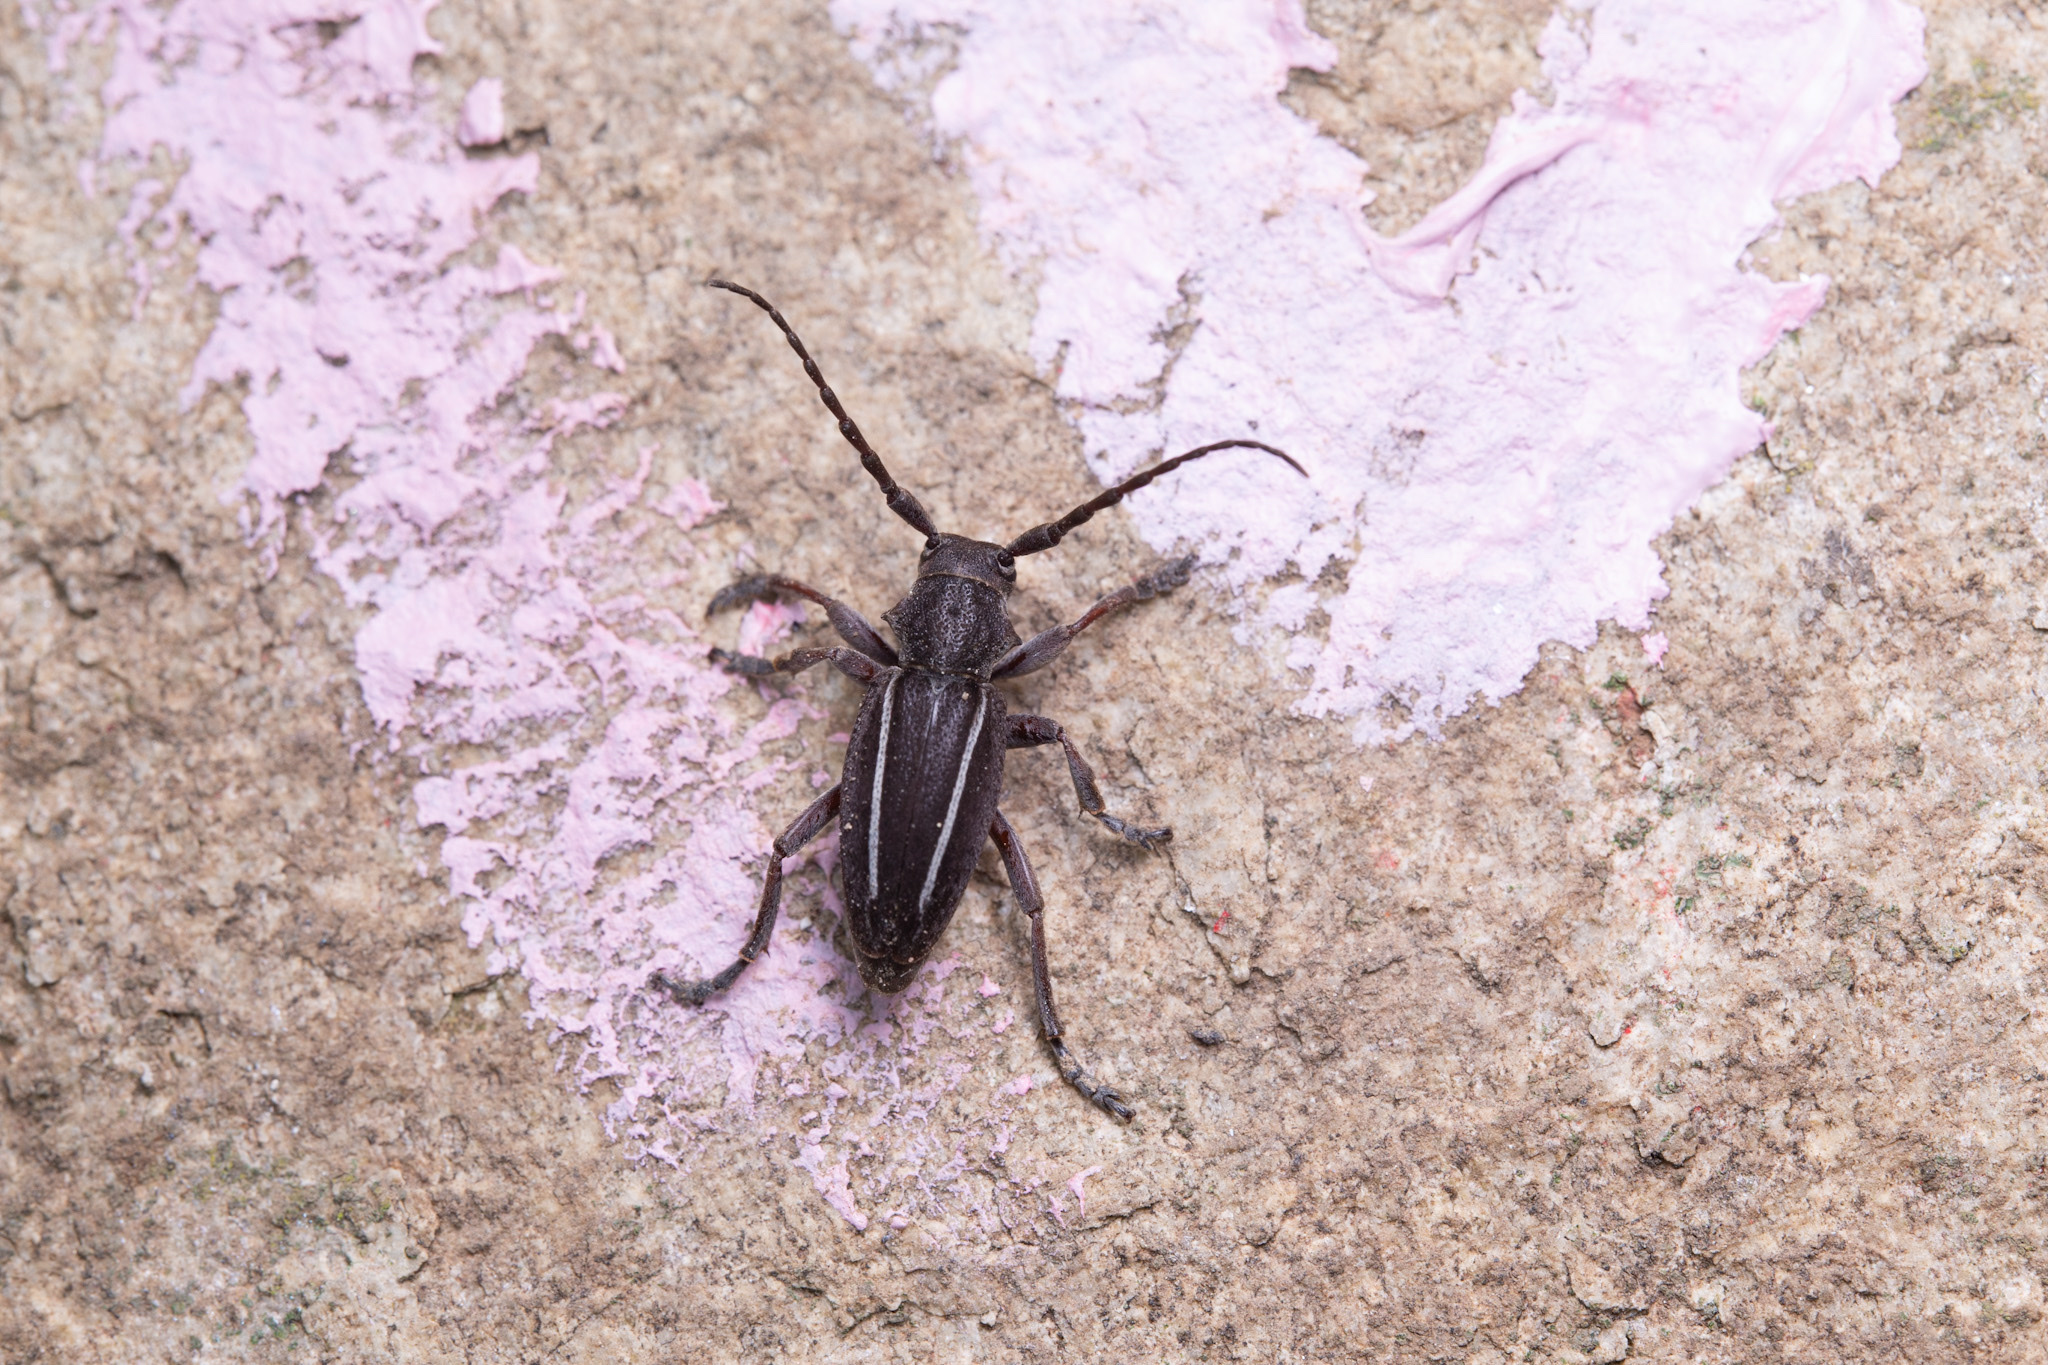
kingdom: Animalia
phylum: Arthropoda
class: Insecta
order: Coleoptera
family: Cerambycidae
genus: Neodorcadion
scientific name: Neodorcadion bilineatum
